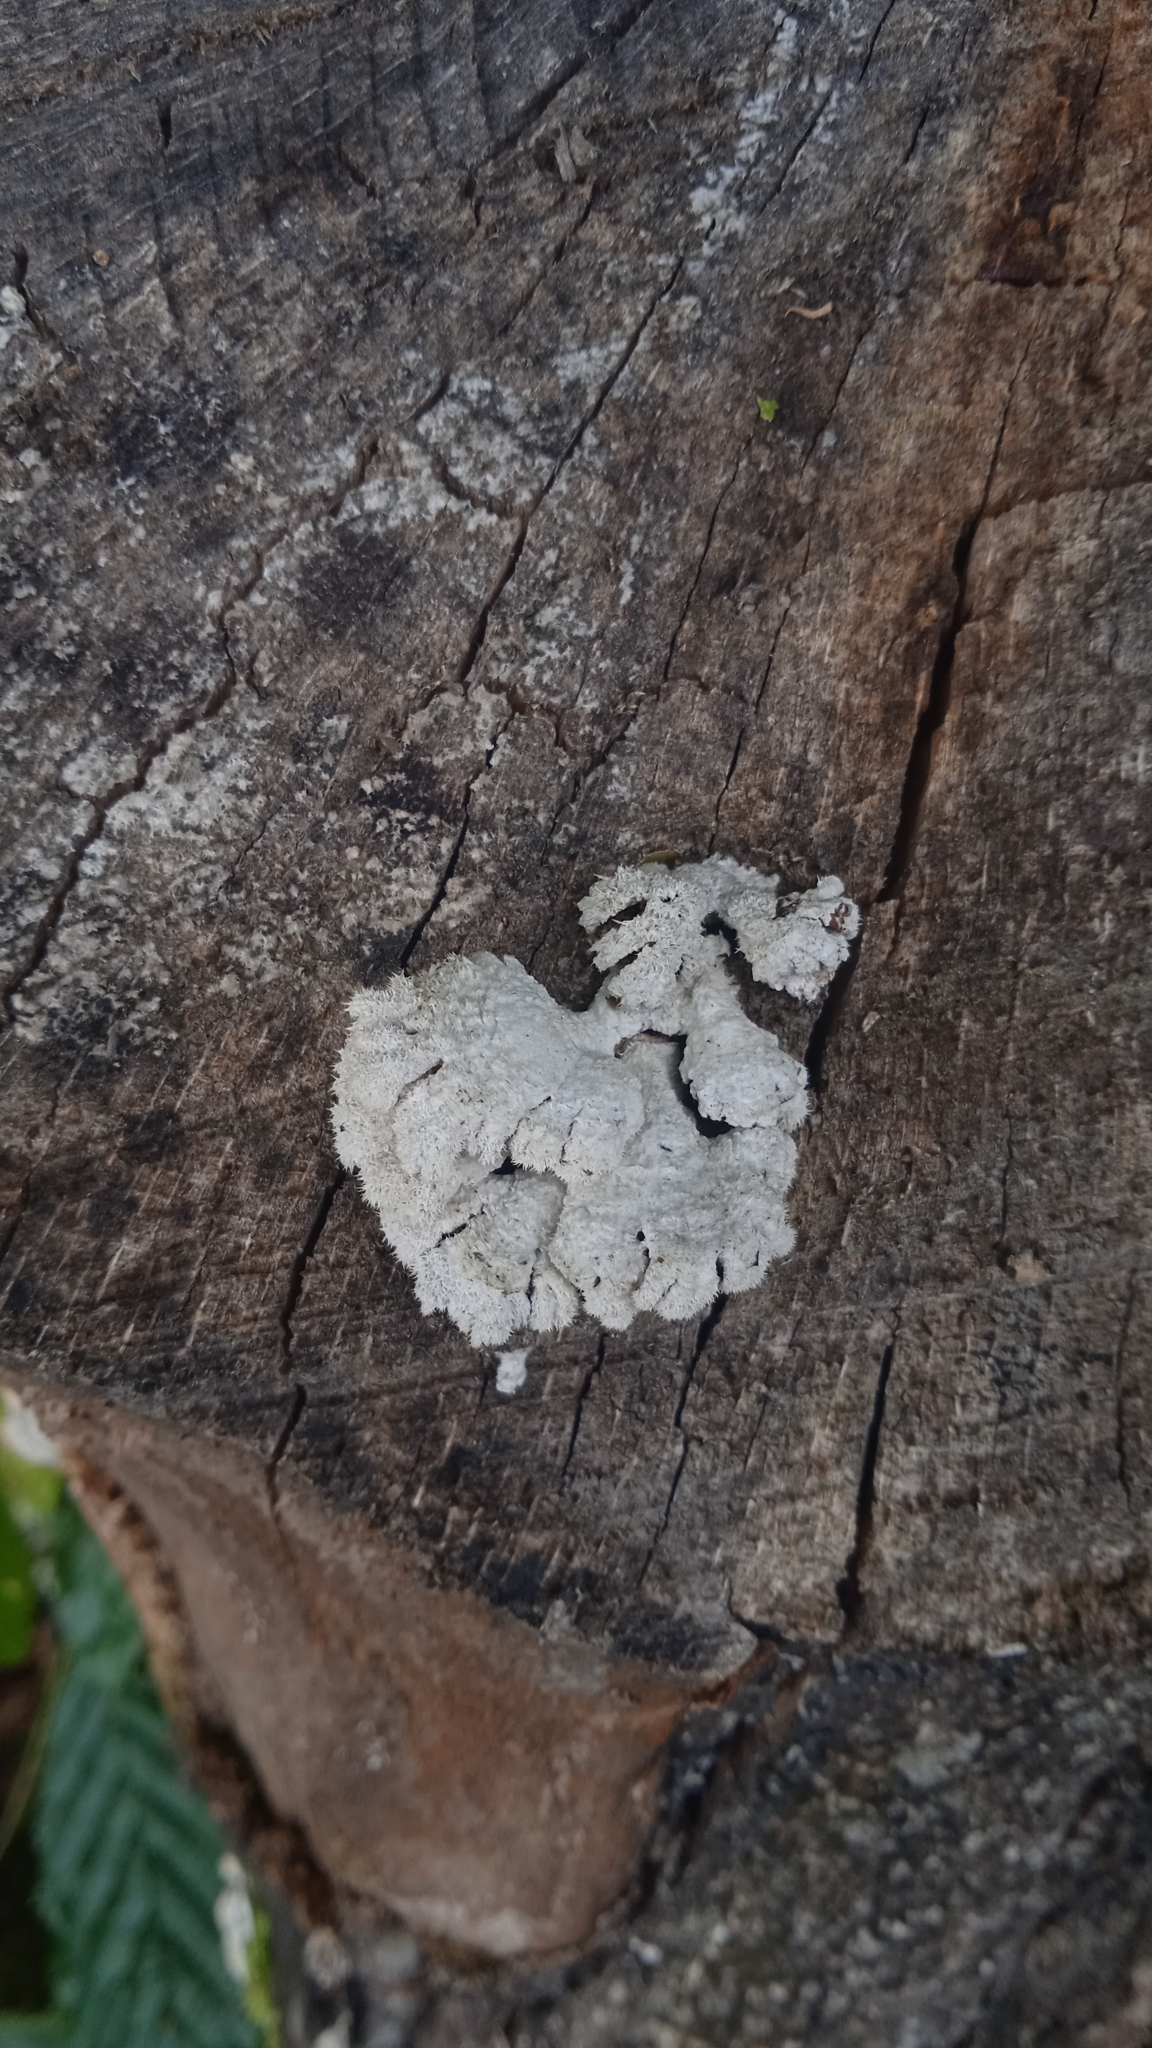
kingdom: Fungi
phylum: Basidiomycota
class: Agaricomycetes
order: Agaricales
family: Schizophyllaceae
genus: Schizophyllum
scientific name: Schizophyllum commune
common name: Common porecrust
